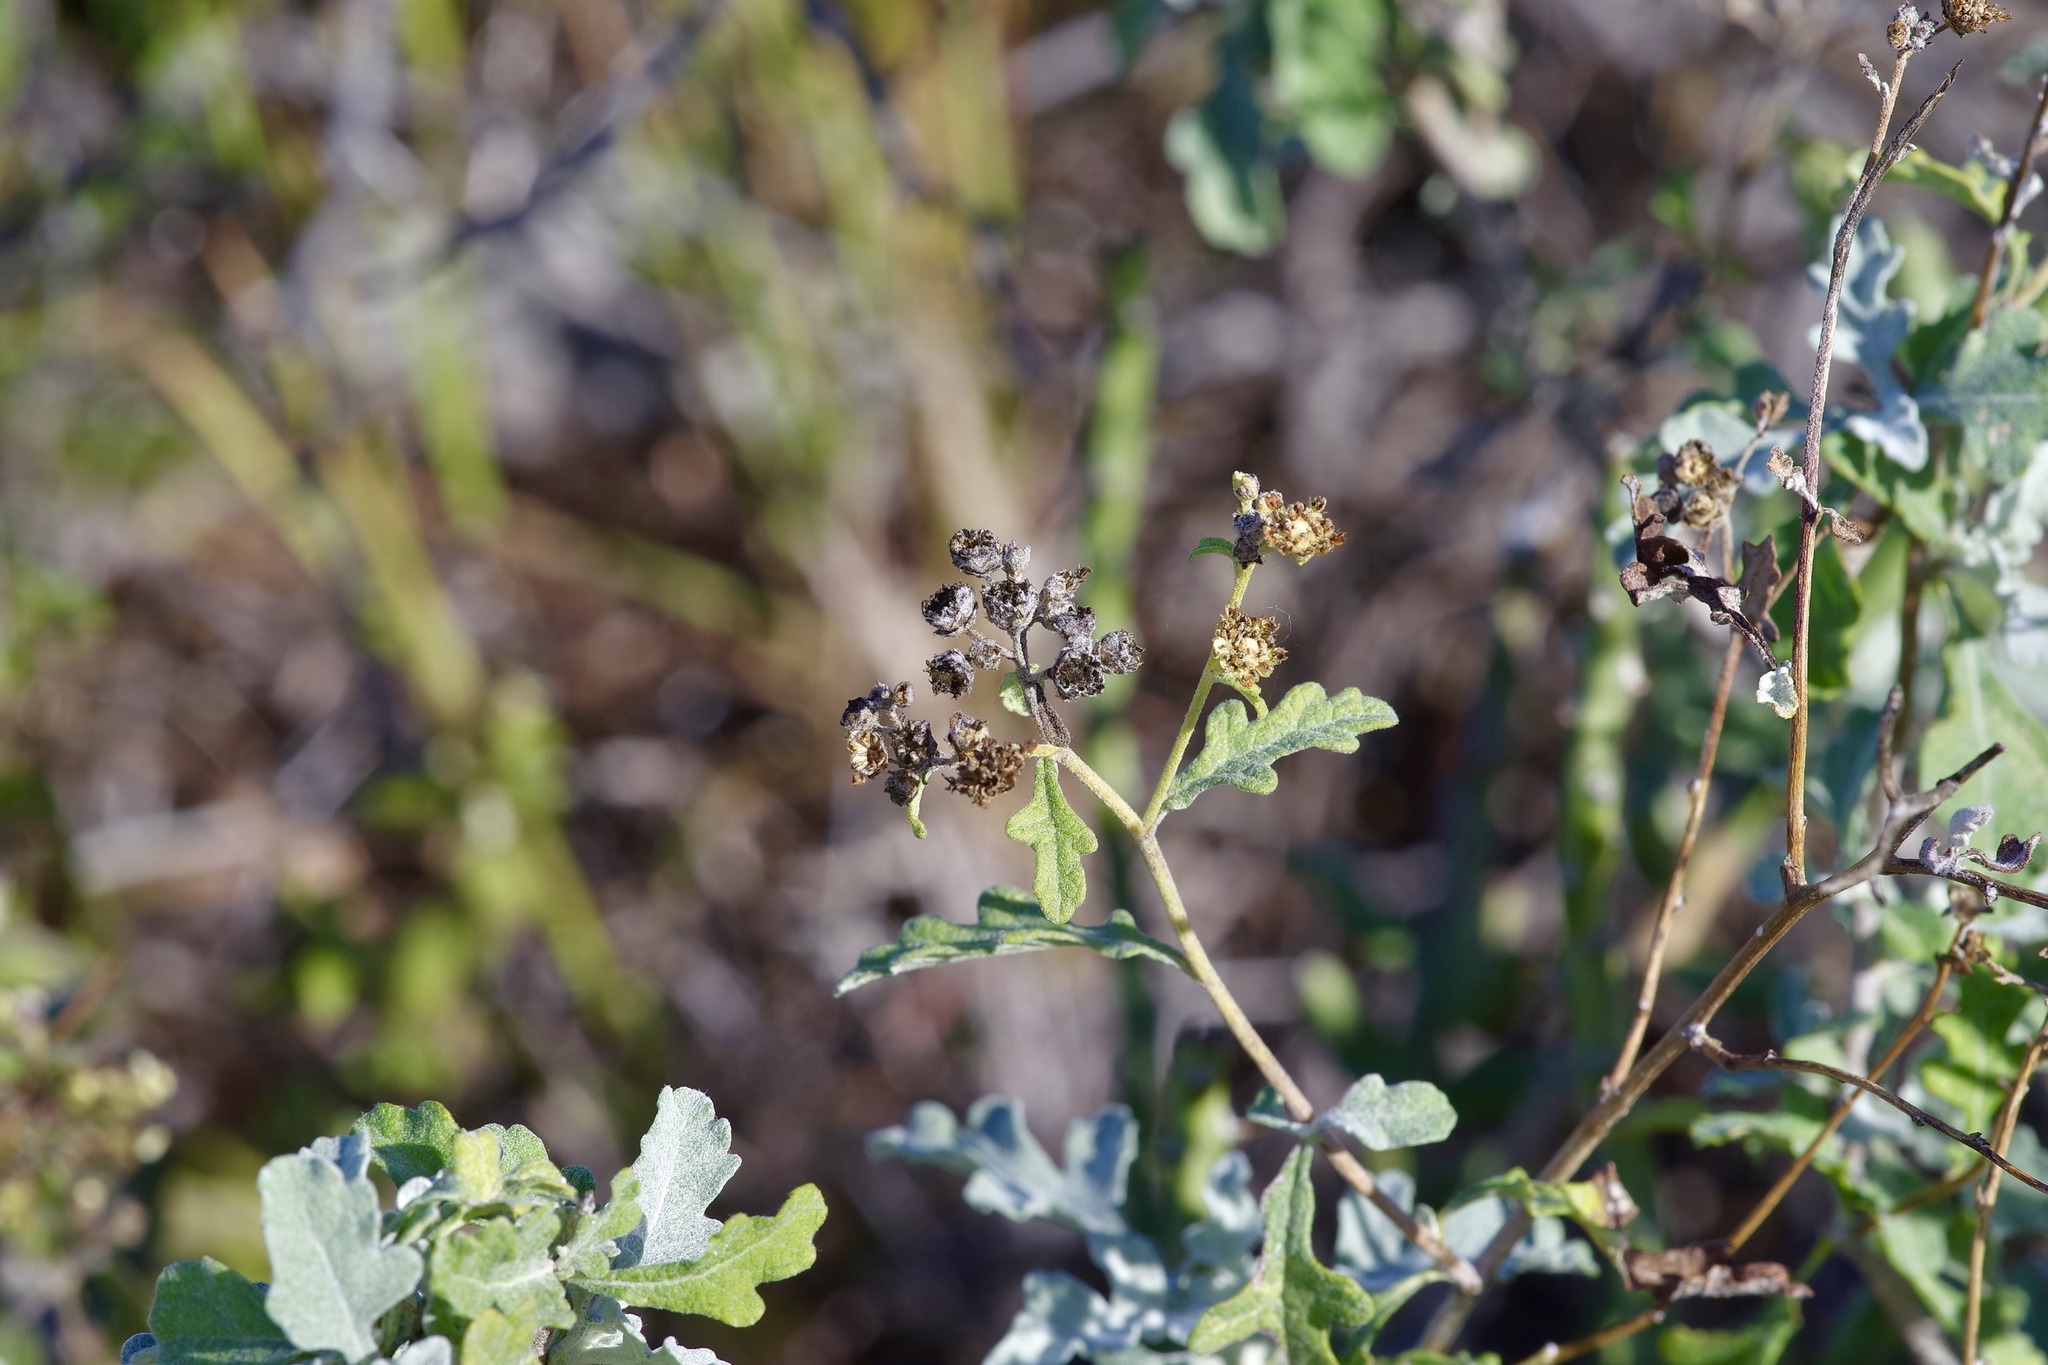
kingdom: Plantae
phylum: Tracheophyta
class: Magnoliopsida
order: Asterales
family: Asteraceae
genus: Parthenium
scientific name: Parthenium incanum
